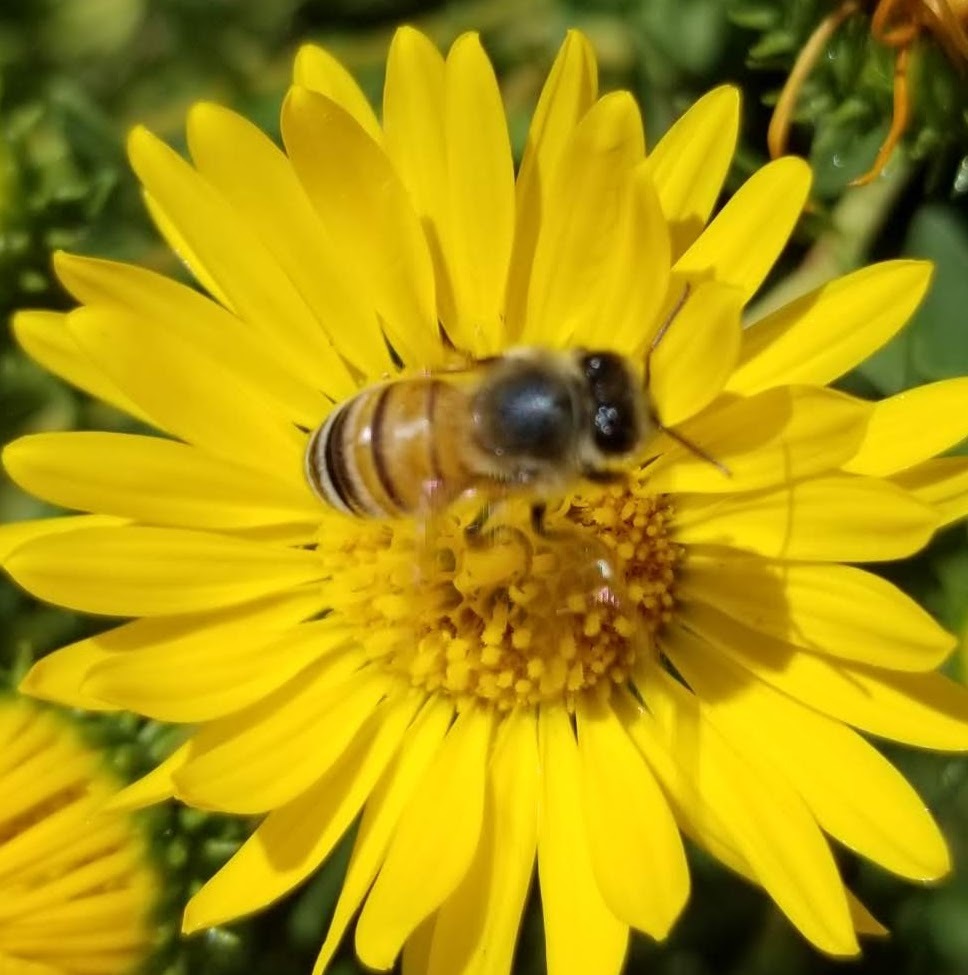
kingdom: Animalia
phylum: Arthropoda
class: Insecta
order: Hymenoptera
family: Apidae
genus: Apis
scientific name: Apis mellifera
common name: Honey bee
